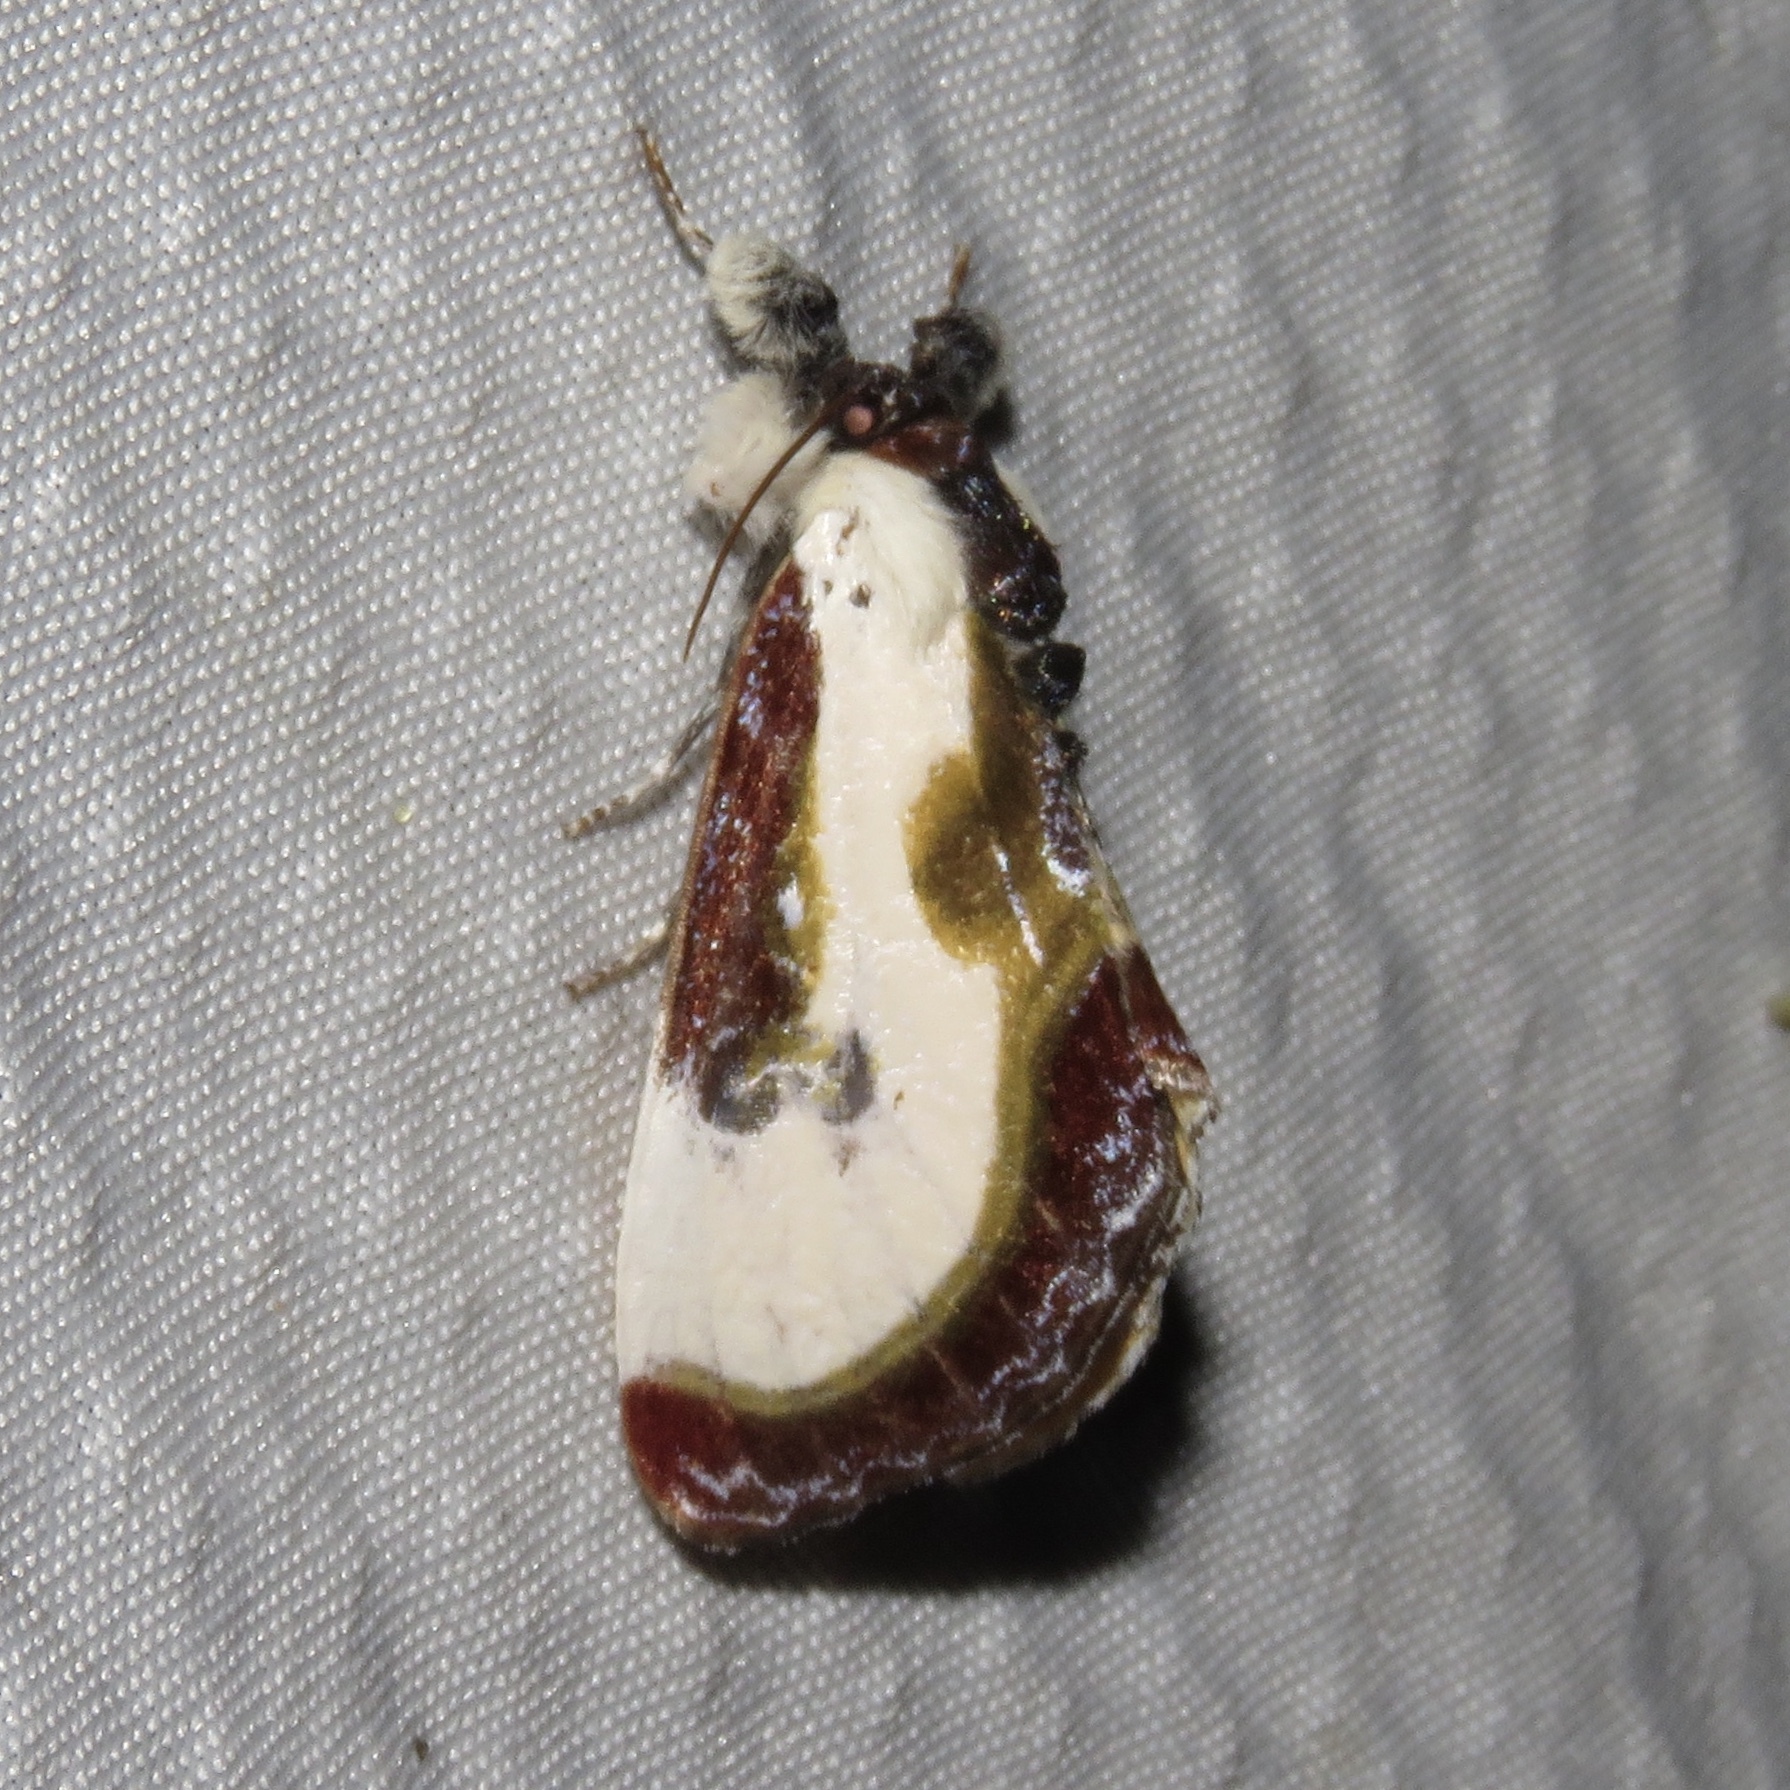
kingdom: Animalia
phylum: Arthropoda
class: Insecta
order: Lepidoptera
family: Noctuidae
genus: Eudryas
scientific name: Eudryas grata
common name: Beautiful wood-nymph
